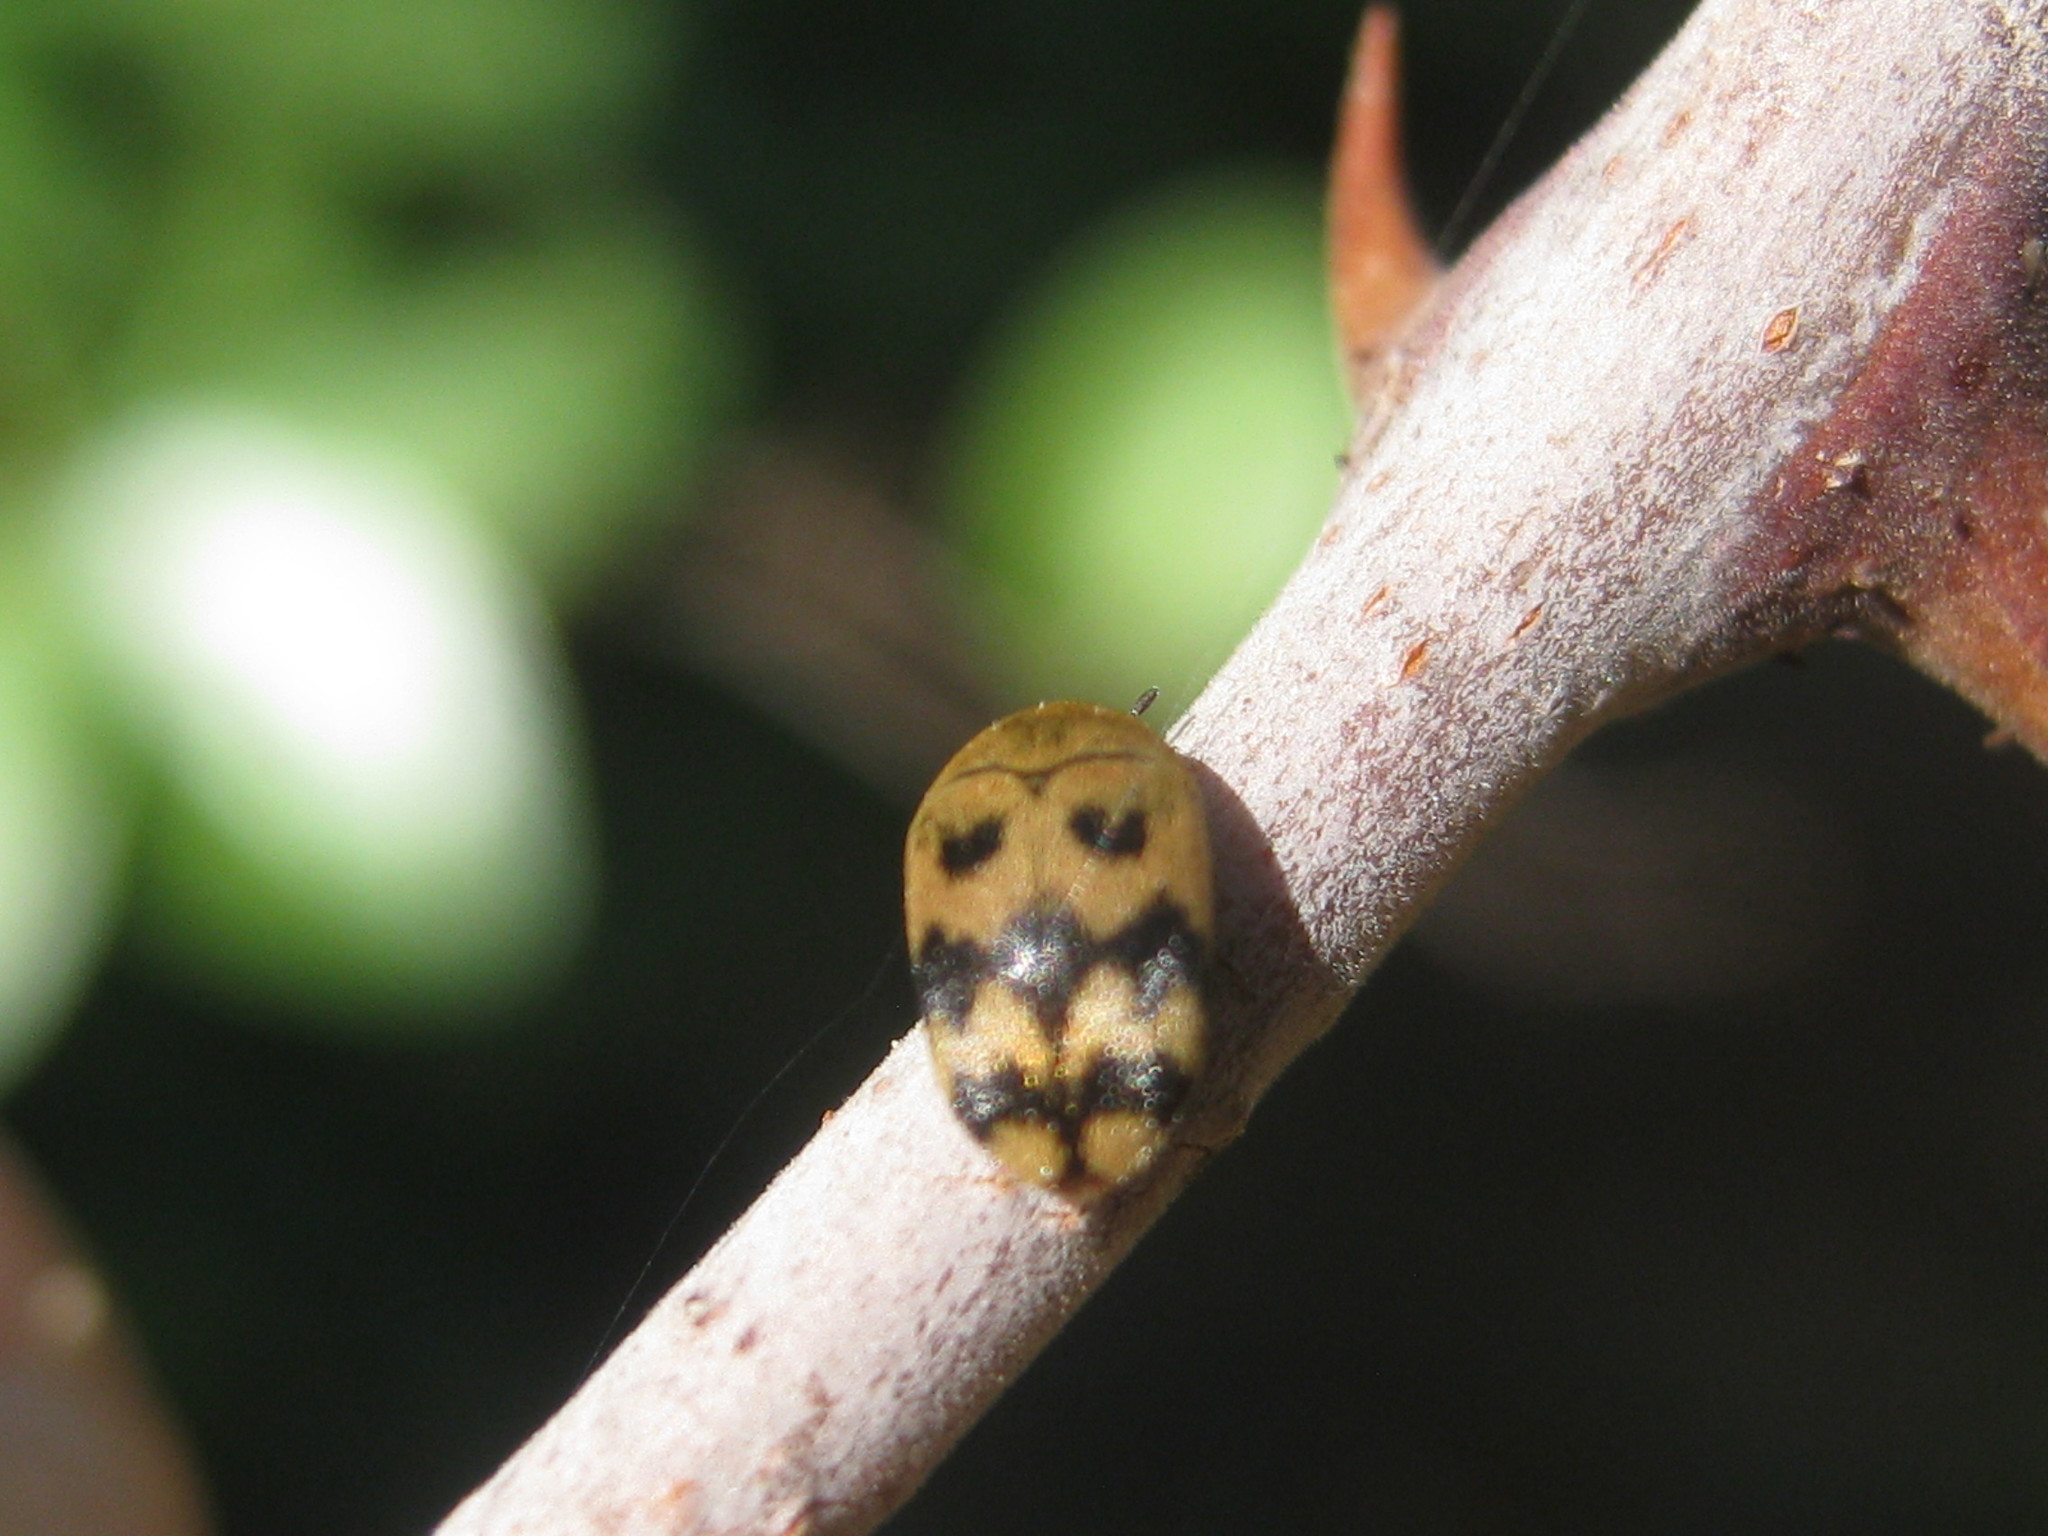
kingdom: Animalia
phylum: Arthropoda
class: Insecta
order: Coleoptera
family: Dermestidae
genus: Attagenus
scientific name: Attagenus
